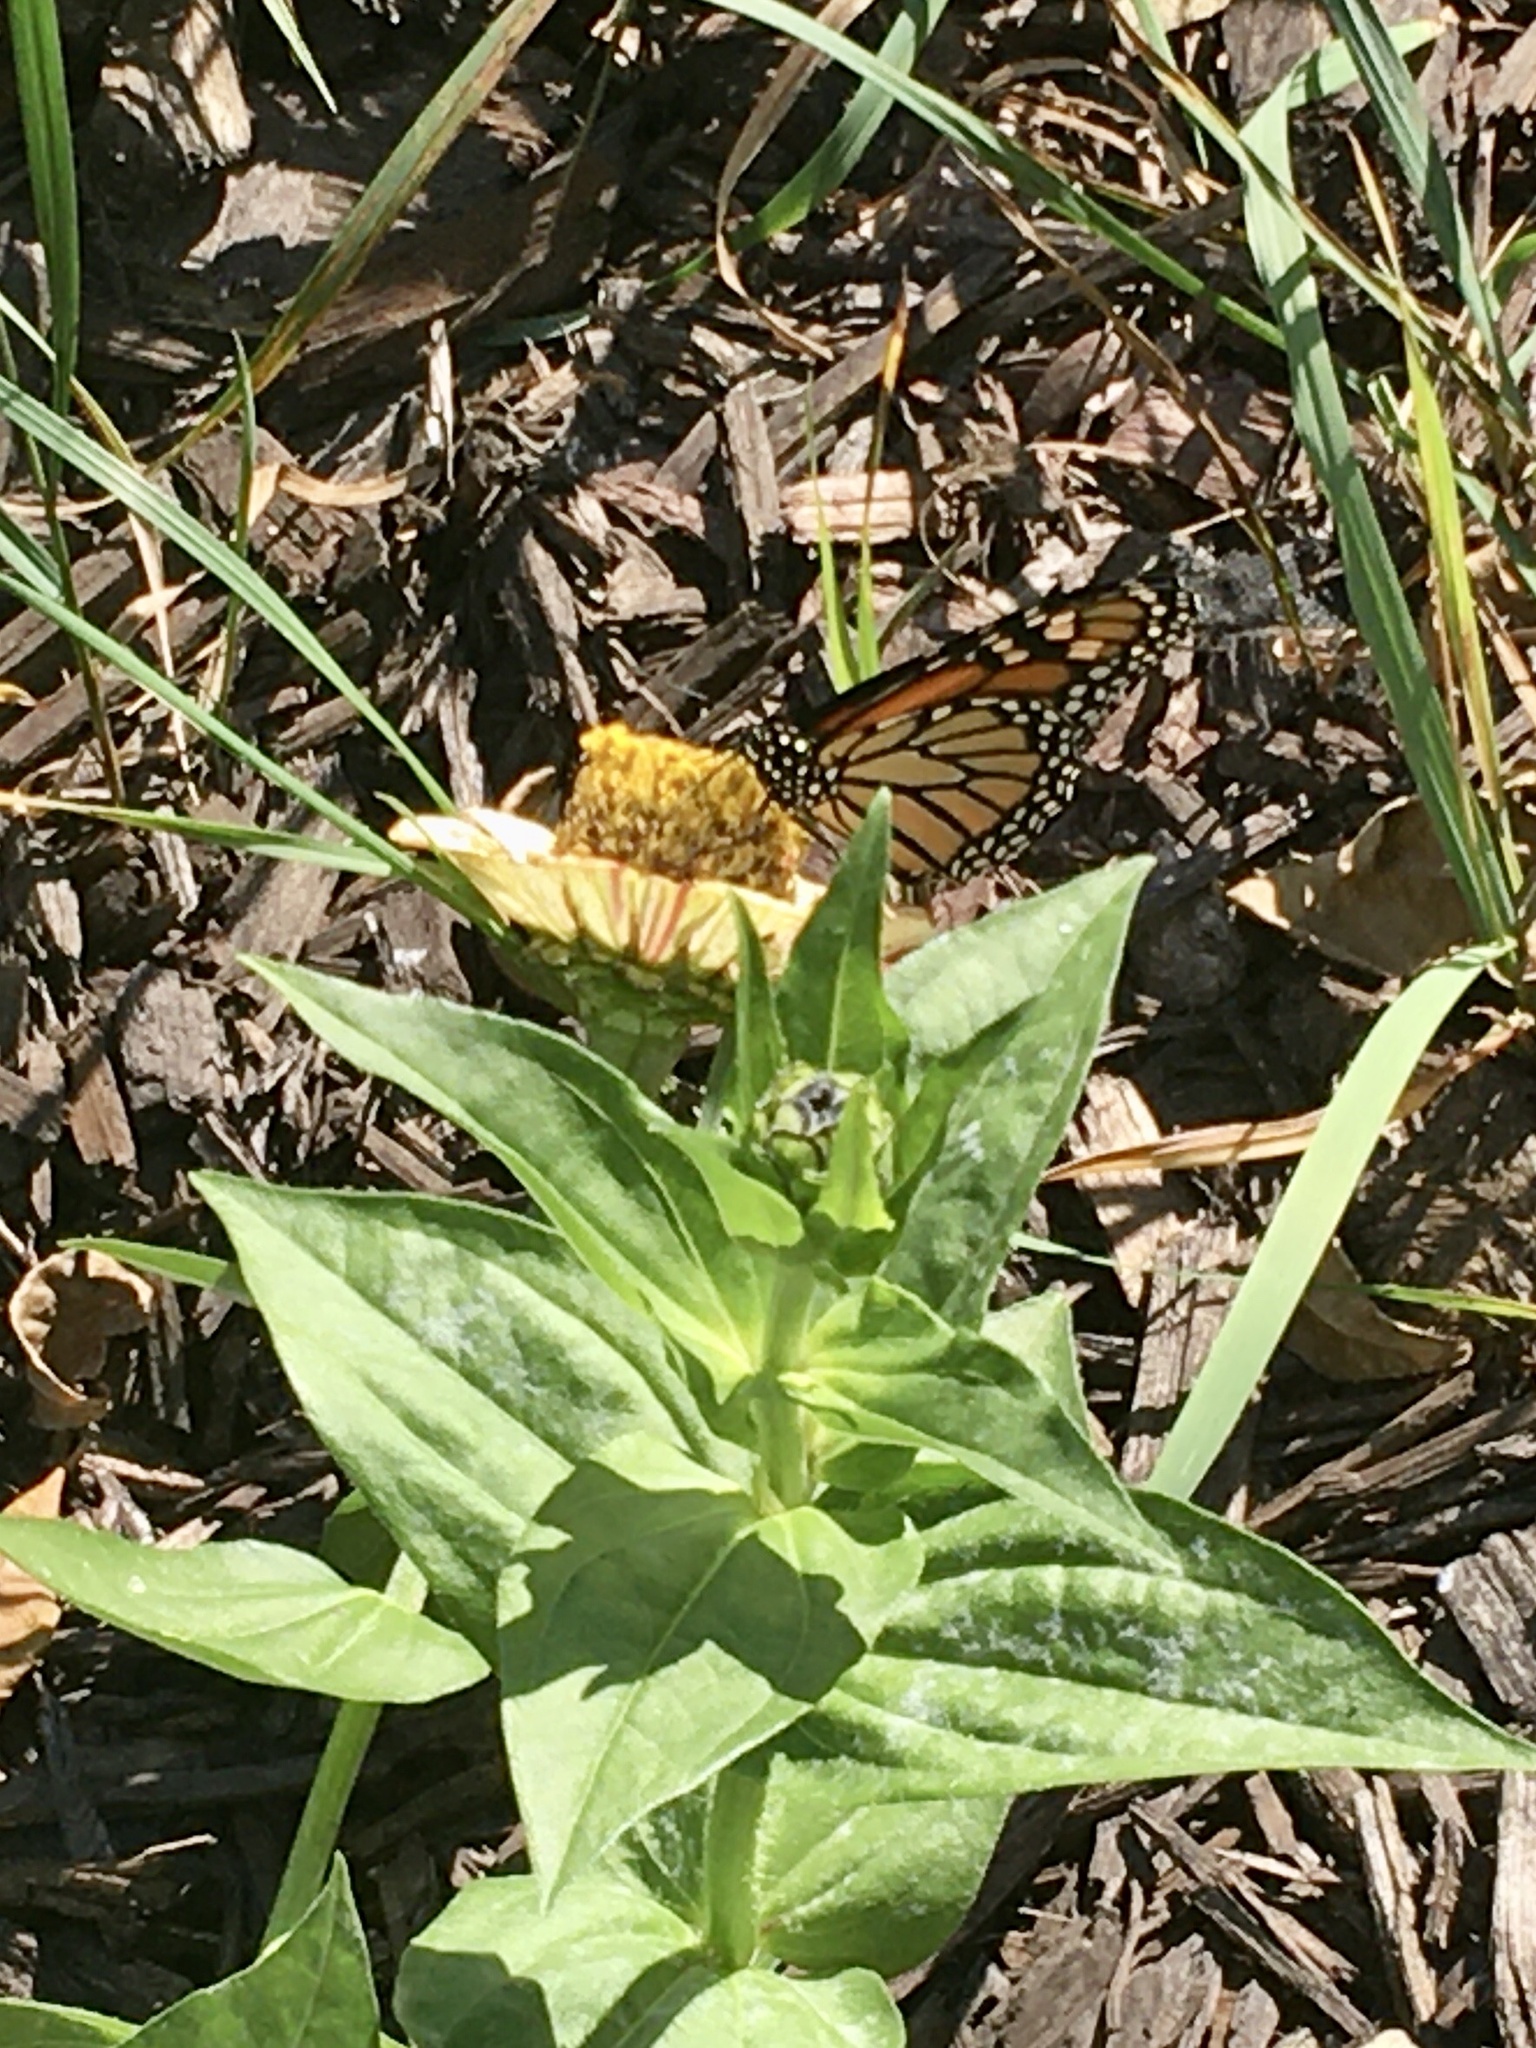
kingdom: Animalia
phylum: Arthropoda
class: Insecta
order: Lepidoptera
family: Nymphalidae
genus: Danaus
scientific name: Danaus plexippus
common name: Monarch
